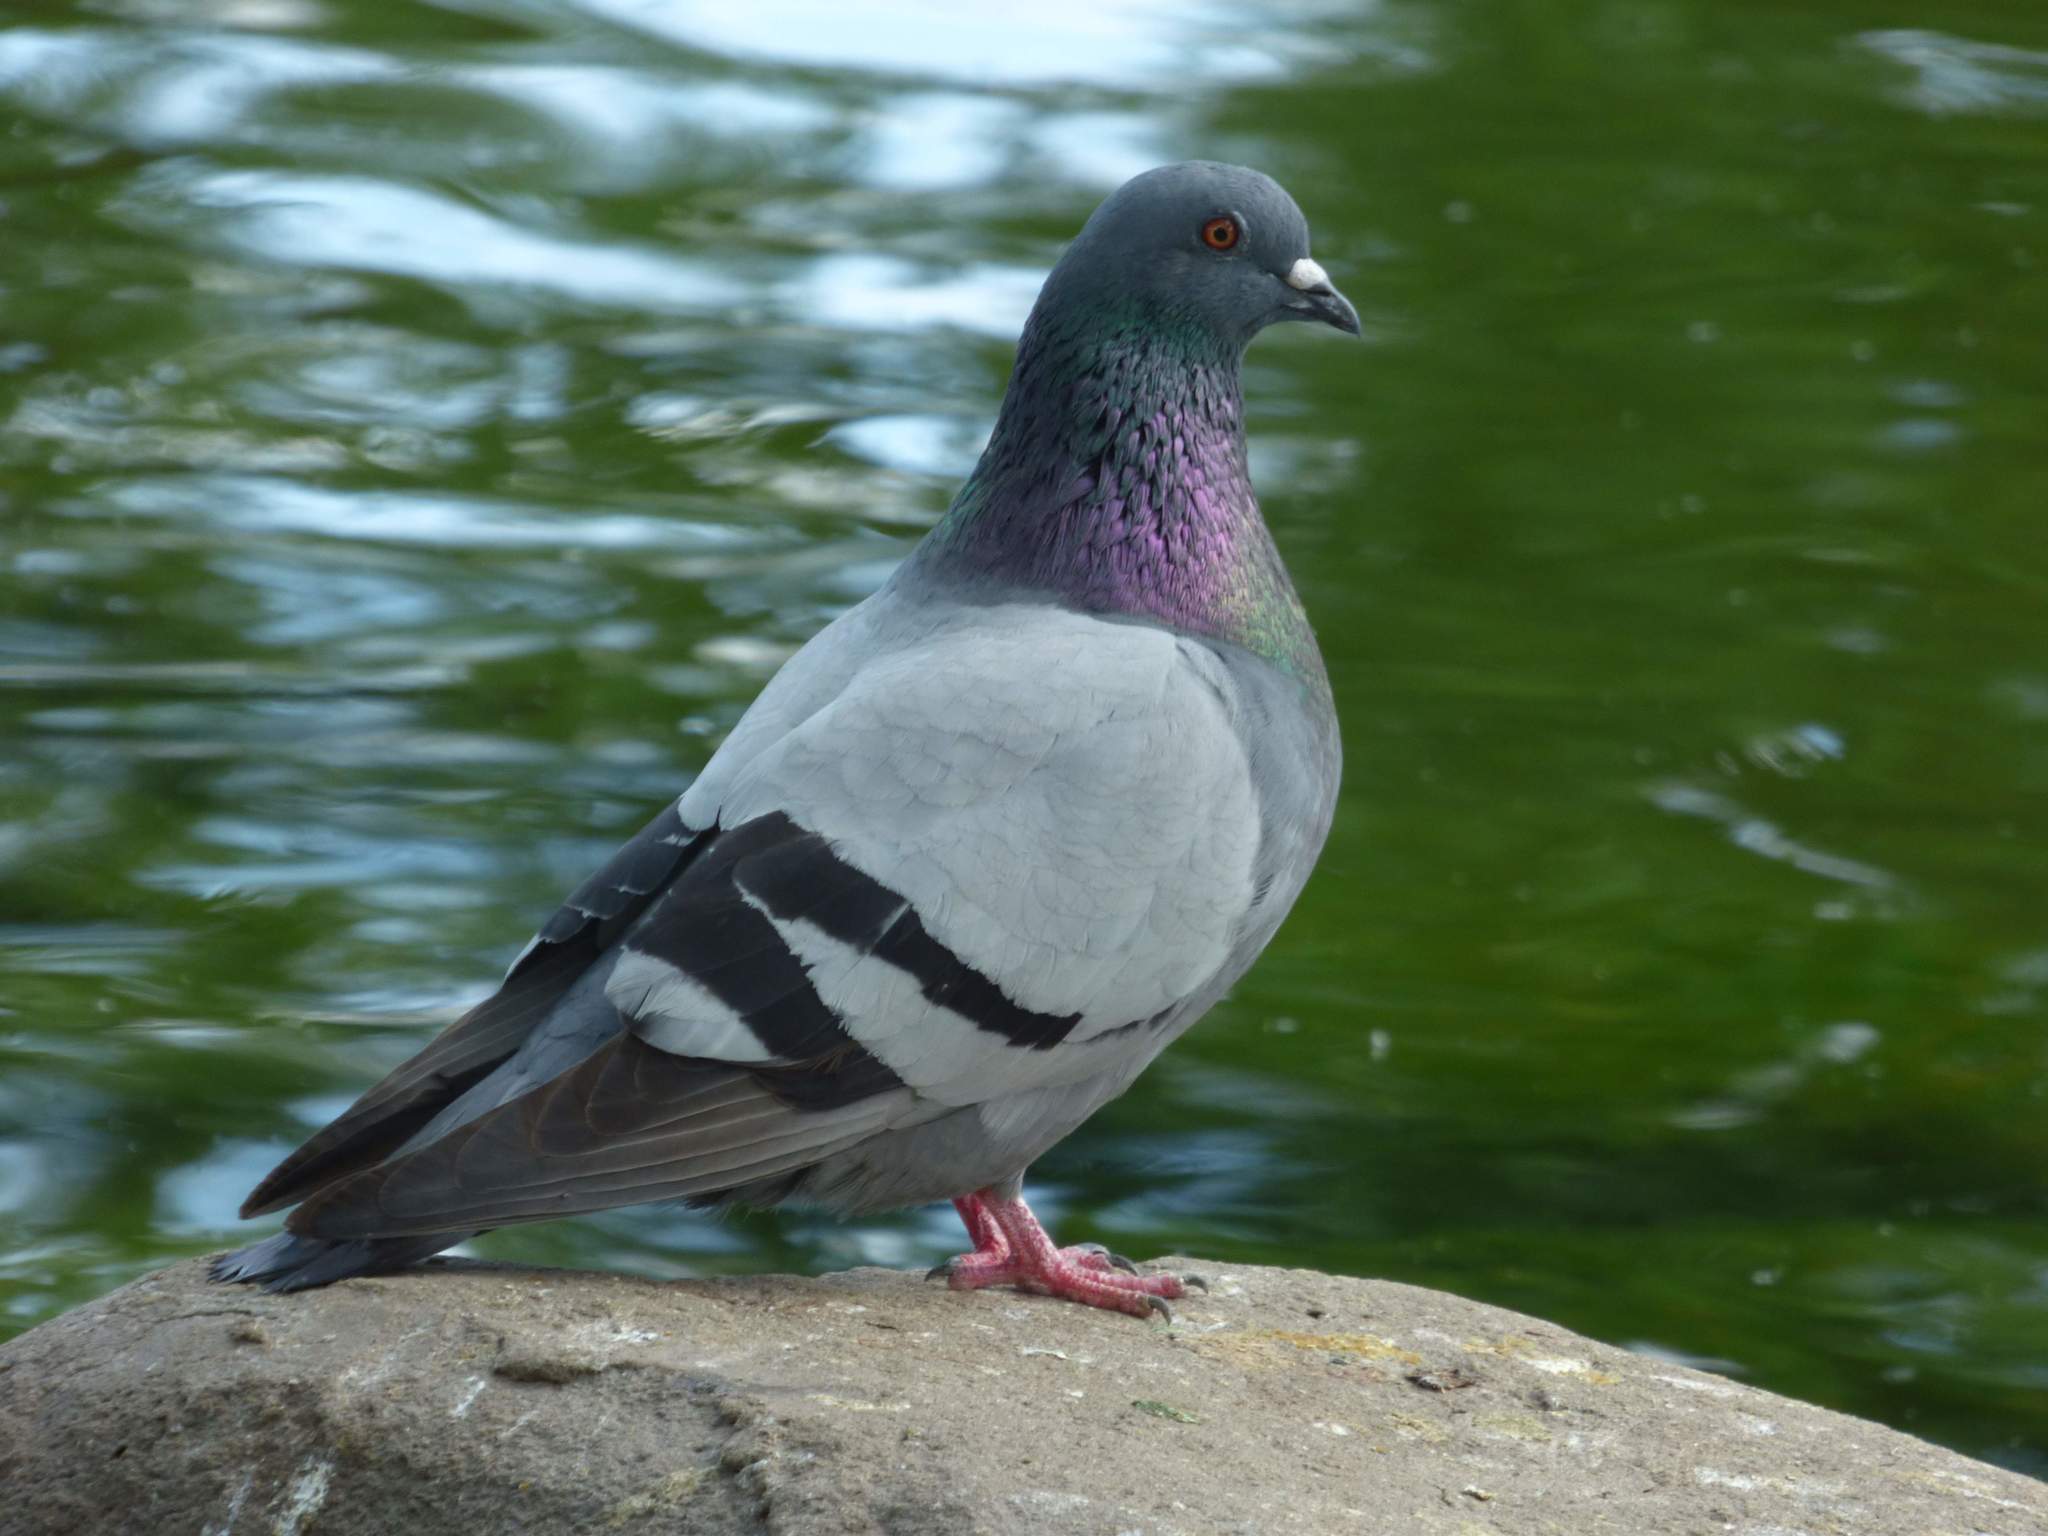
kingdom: Animalia
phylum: Chordata
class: Aves
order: Columbiformes
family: Columbidae
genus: Columba
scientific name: Columba livia
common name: Rock pigeon
